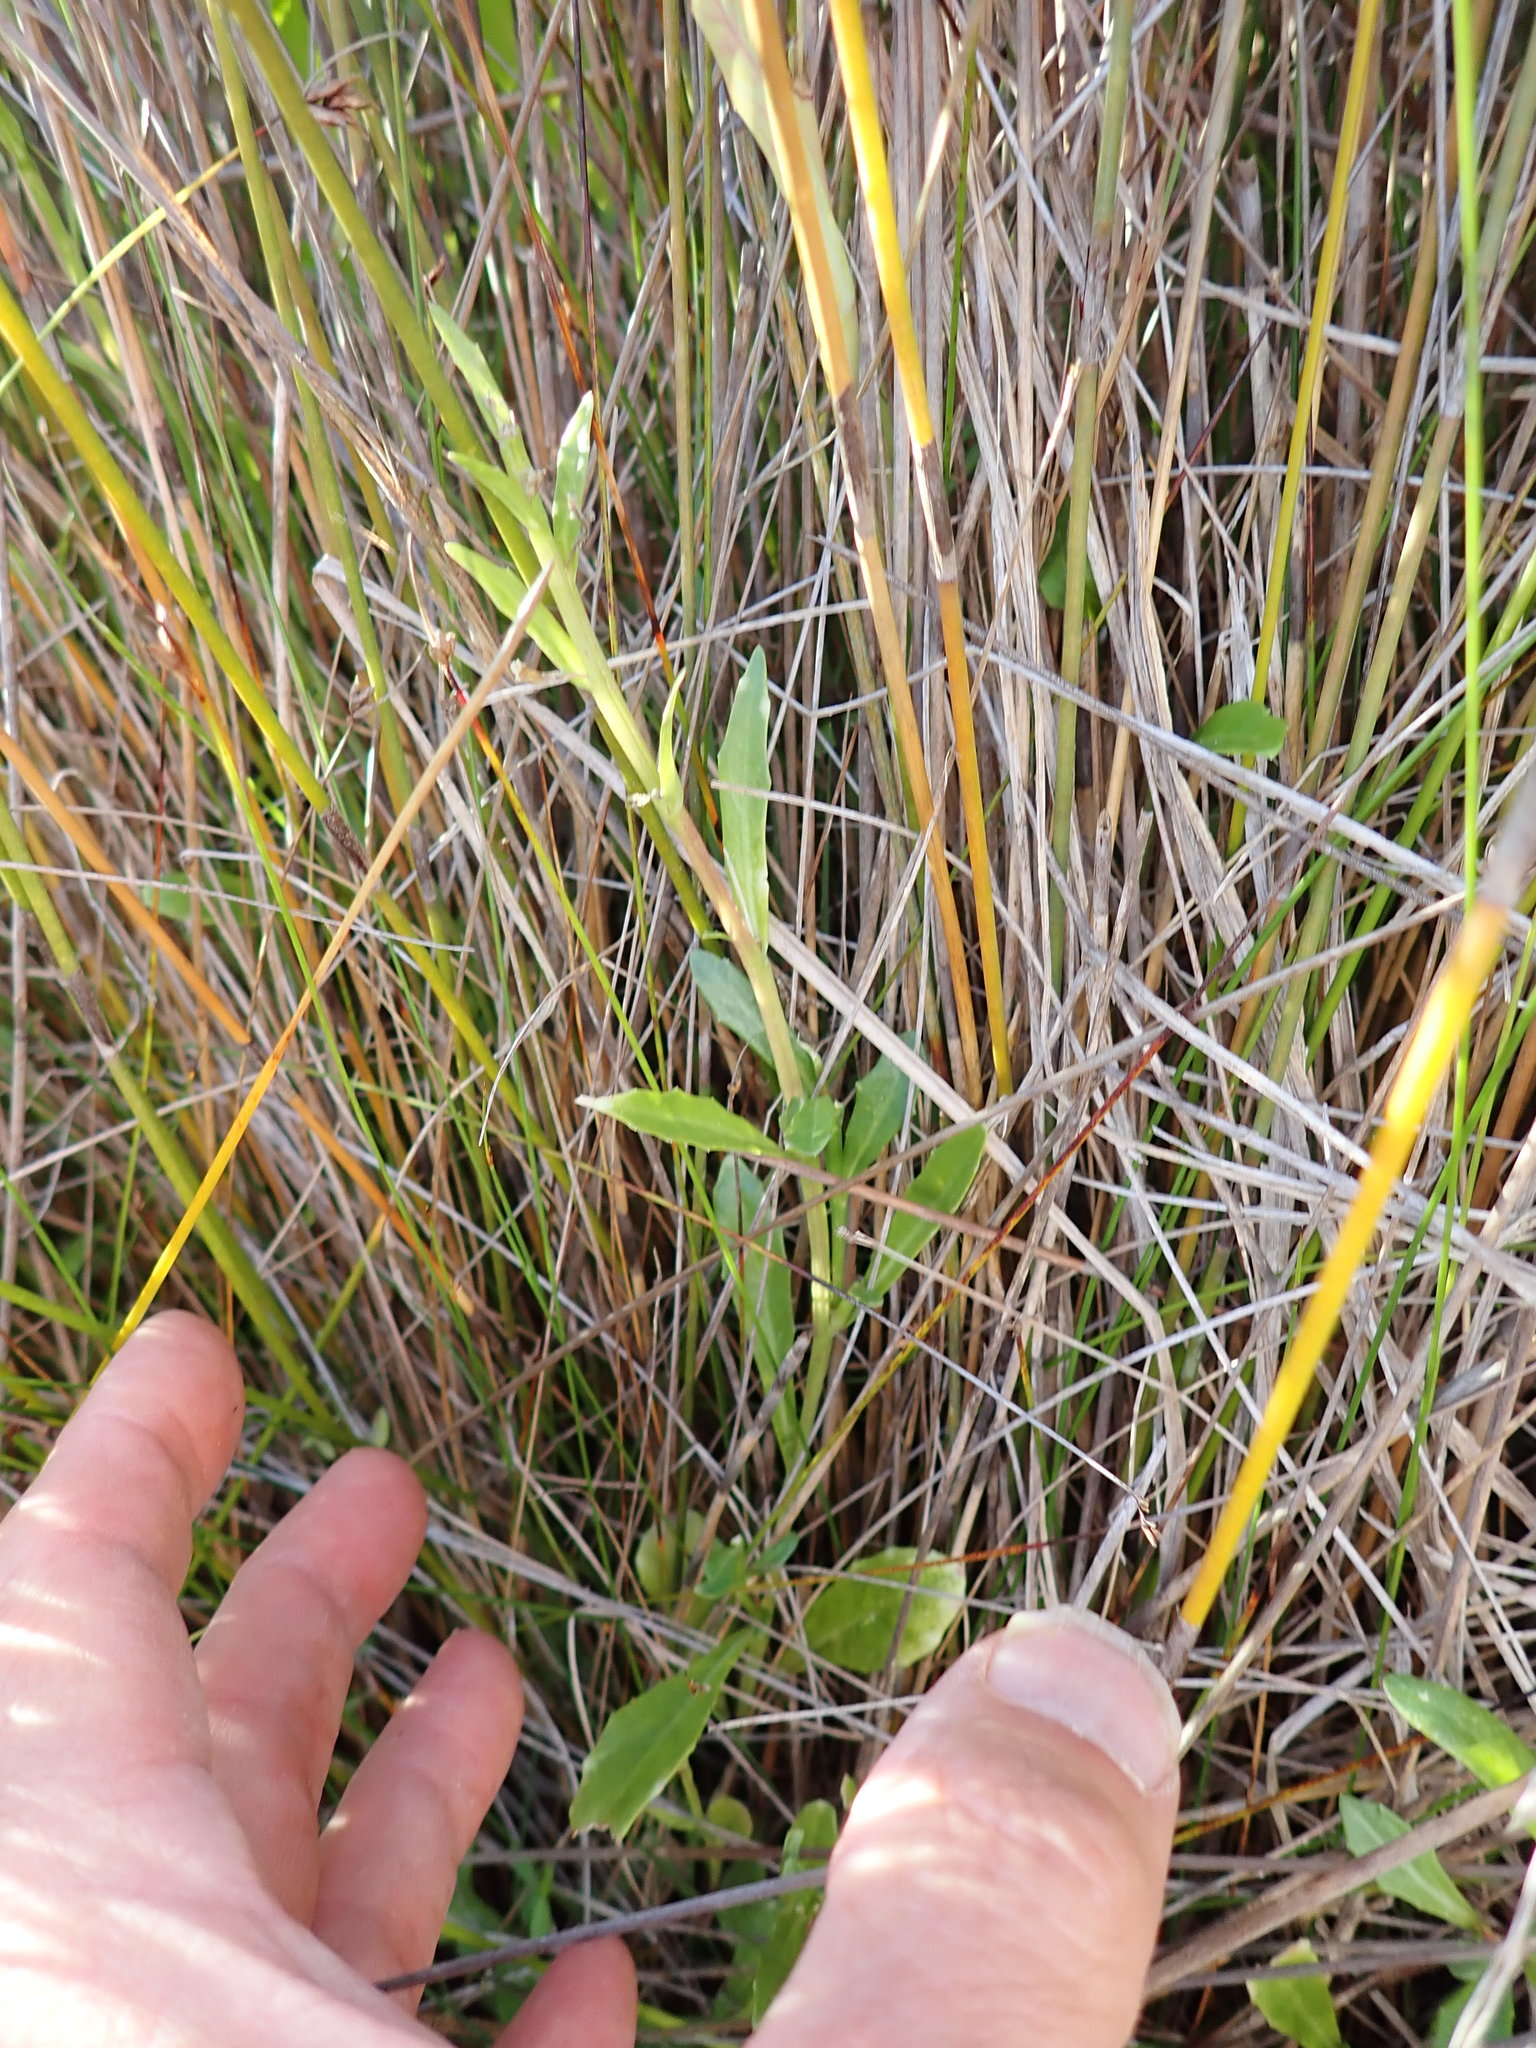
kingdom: Plantae
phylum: Tracheophyta
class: Magnoliopsida
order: Asterales
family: Campanulaceae
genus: Lobelia
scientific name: Lobelia anceps
